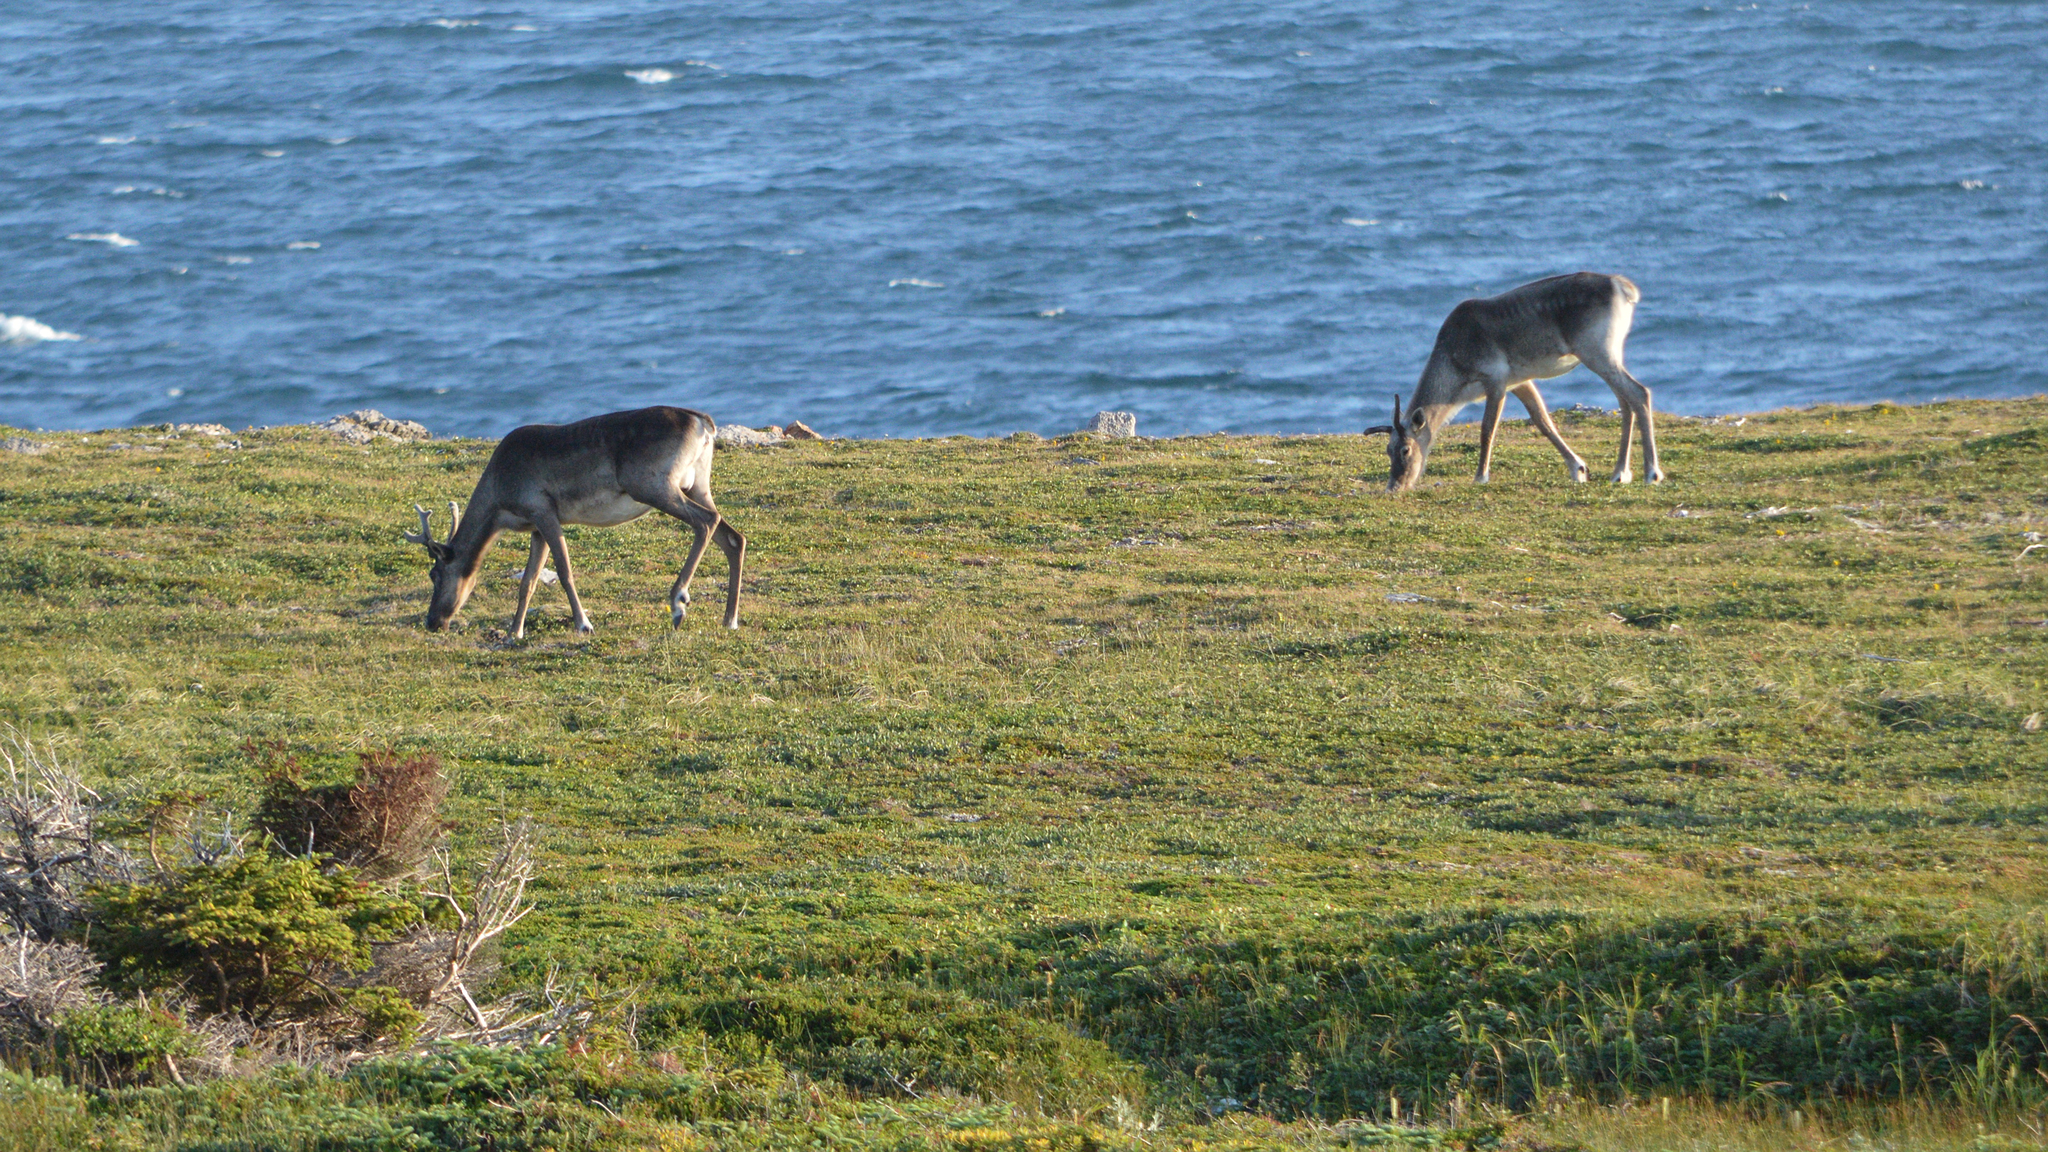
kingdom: Animalia
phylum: Chordata
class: Mammalia
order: Artiodactyla
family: Cervidae
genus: Rangifer
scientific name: Rangifer tarandus
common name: Reindeer
